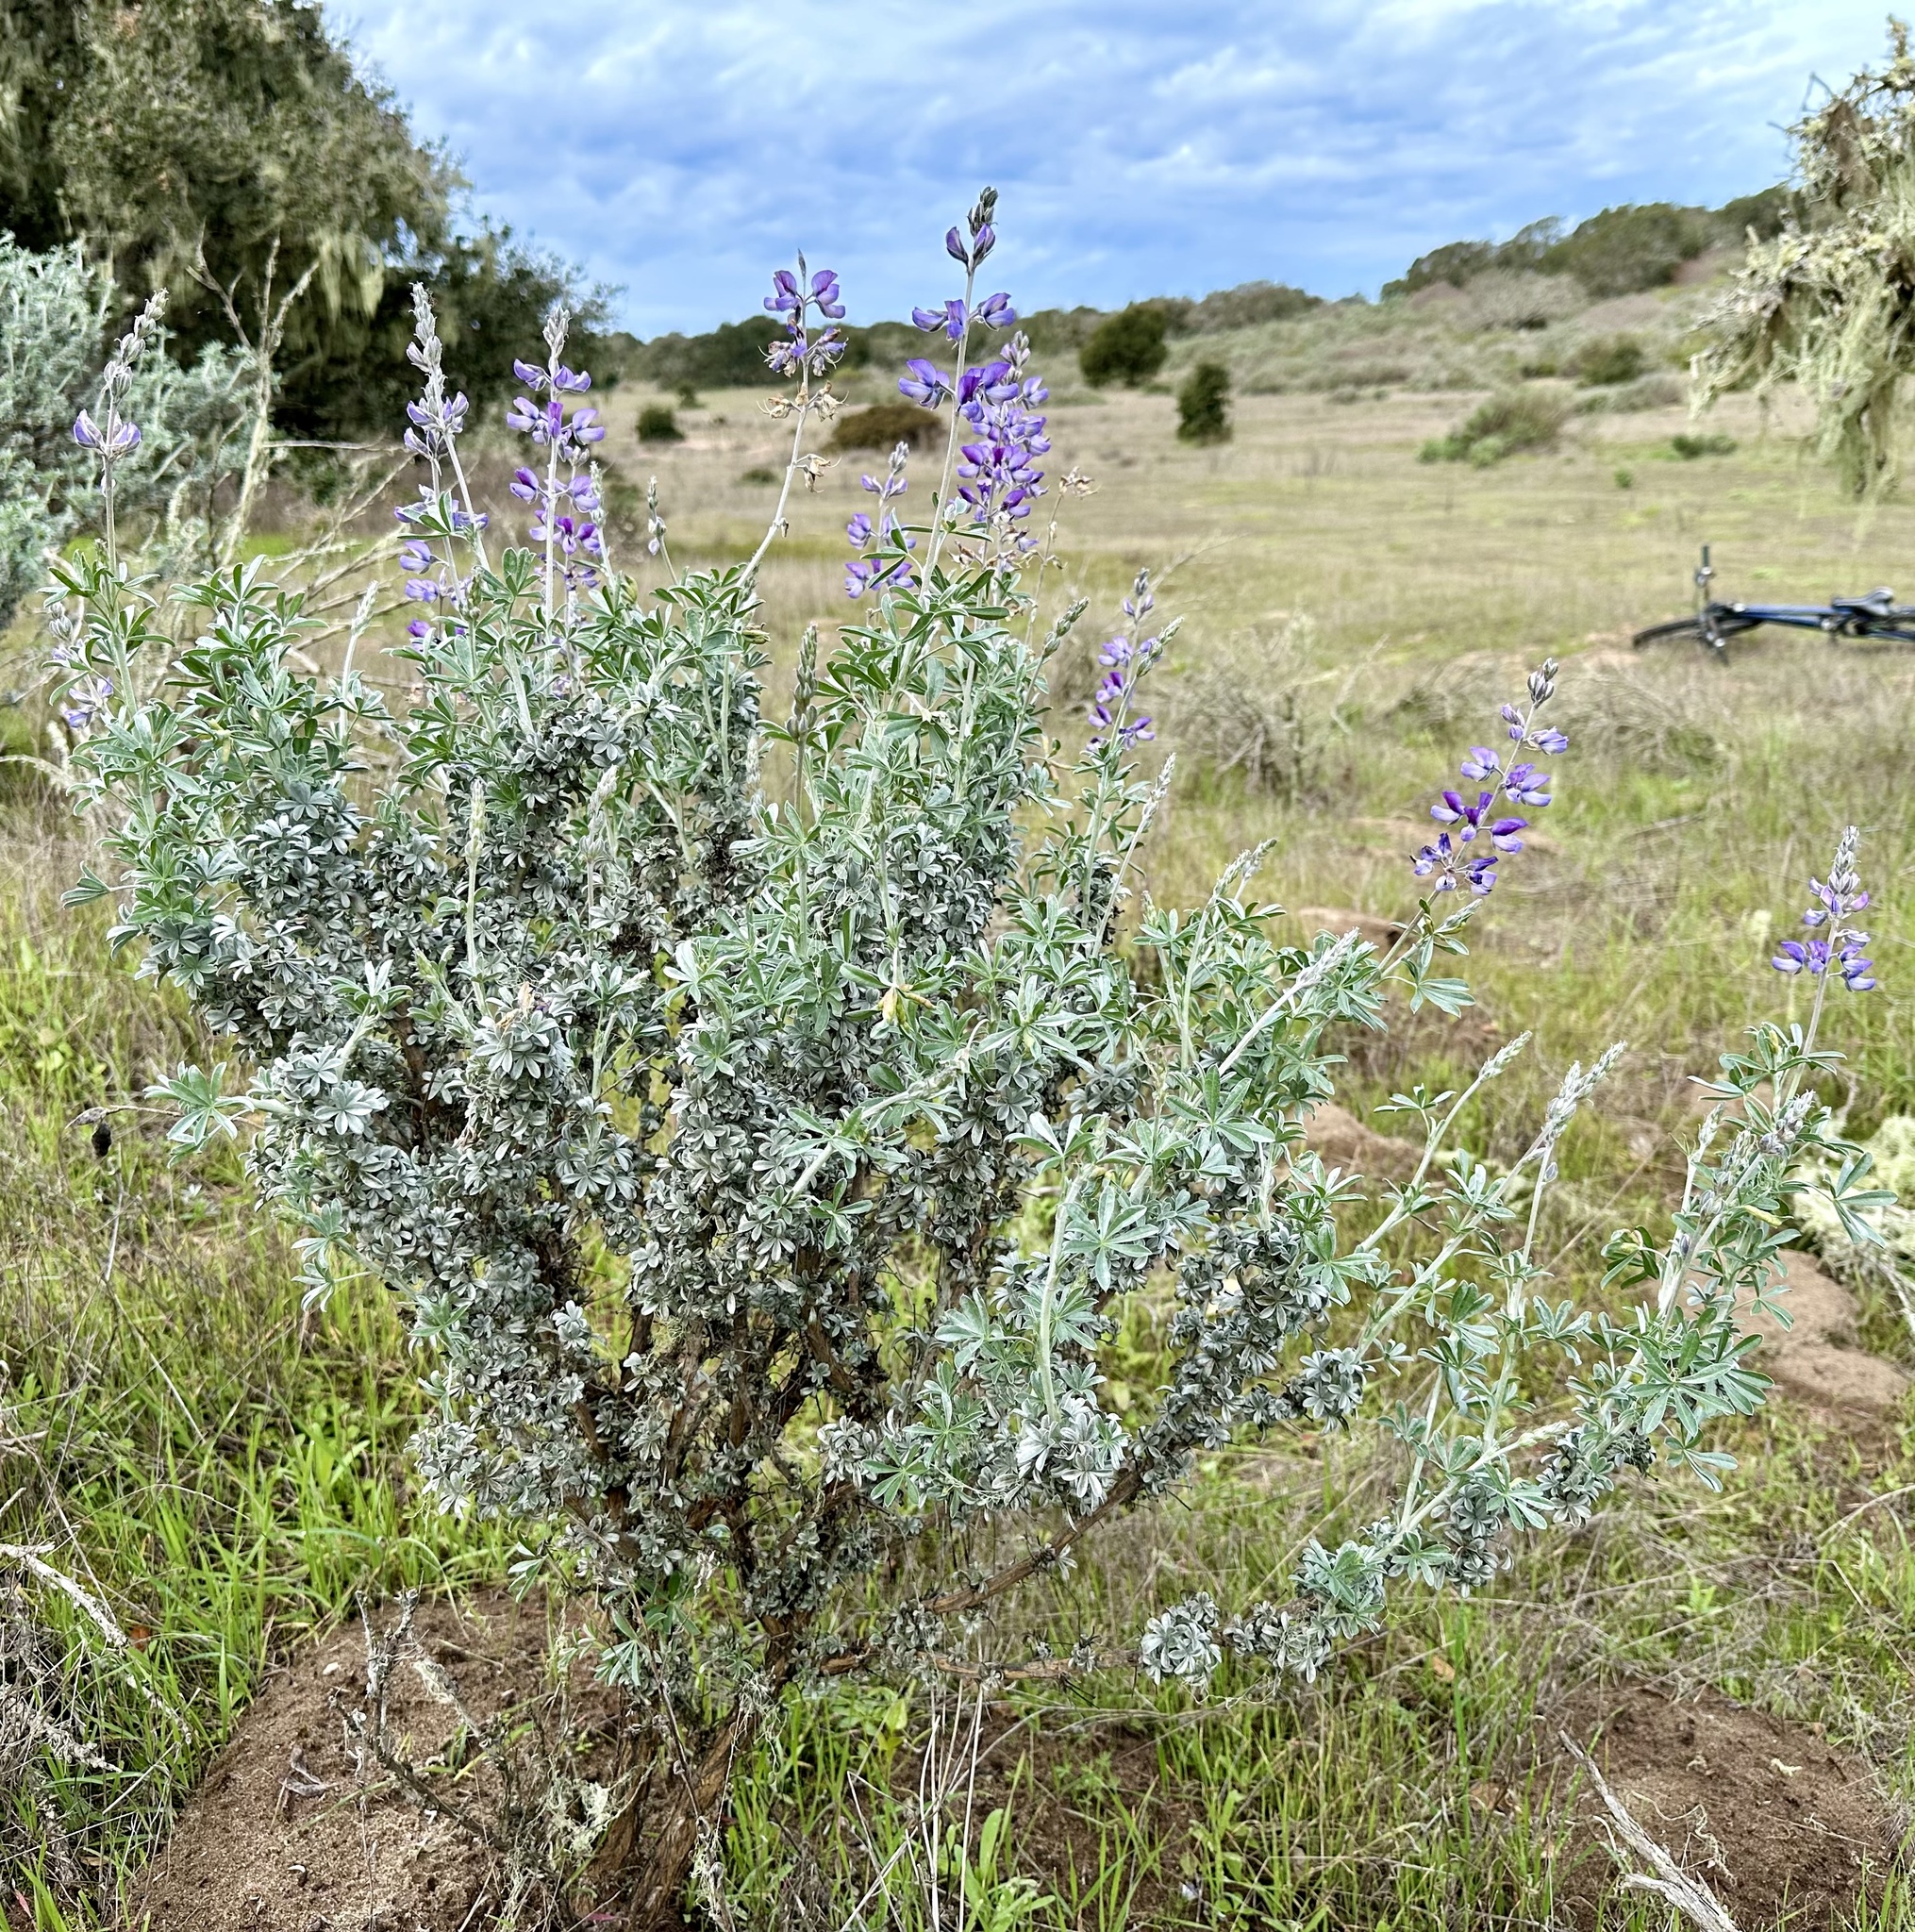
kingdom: Plantae
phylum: Tracheophyta
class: Magnoliopsida
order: Fabales
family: Fabaceae
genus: Lupinus
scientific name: Lupinus chamissonis
